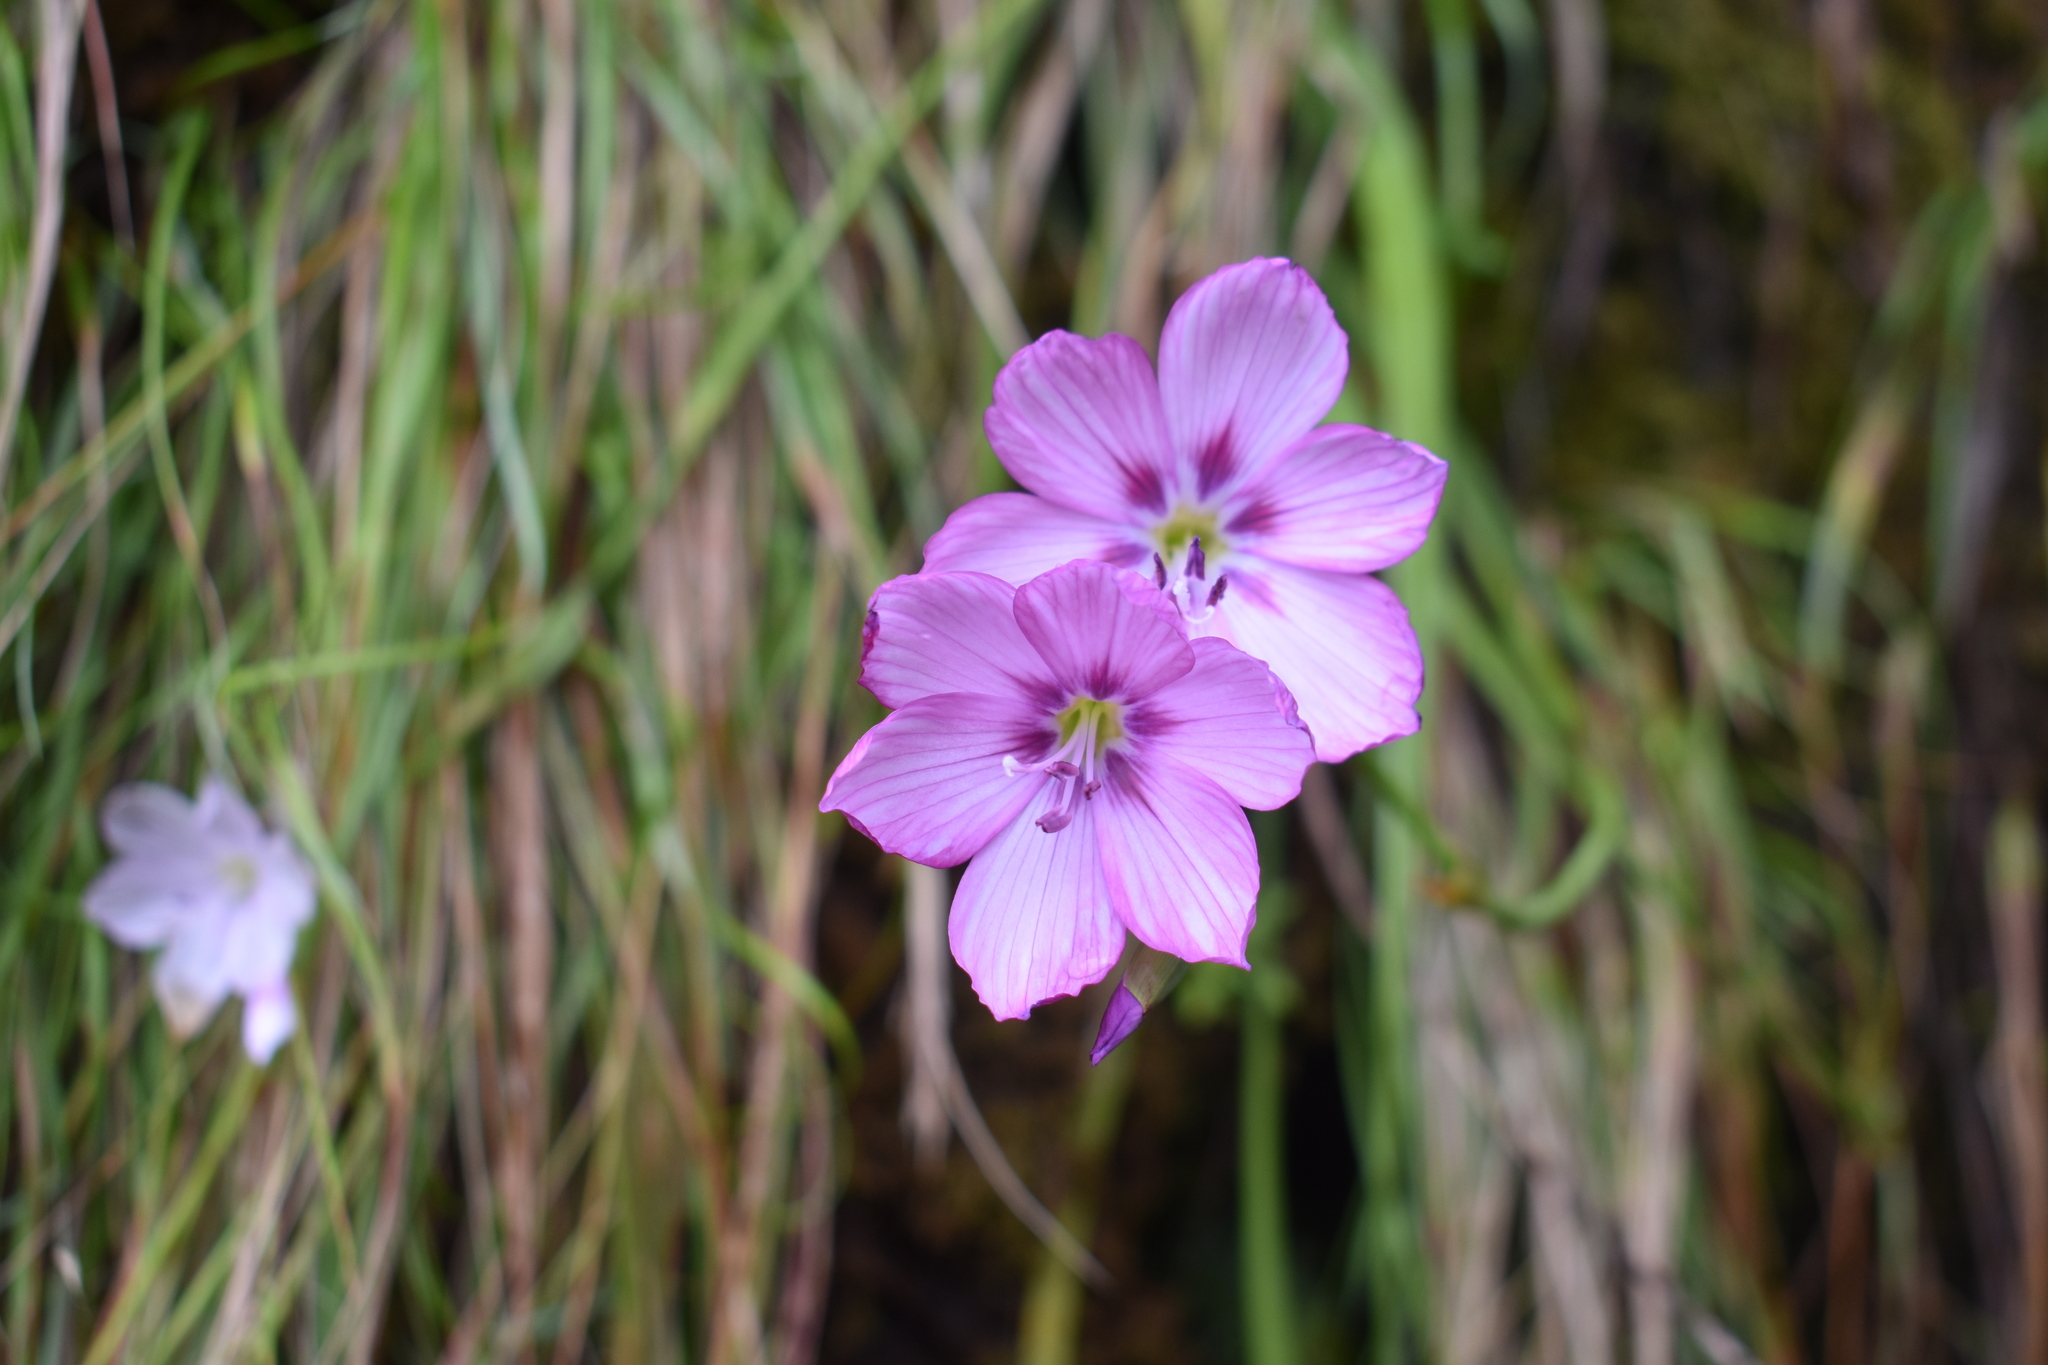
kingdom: Plantae
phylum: Tracheophyta
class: Liliopsida
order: Asparagales
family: Iridaceae
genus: Geissorhiza
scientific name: Geissorhiza outeniquensis
